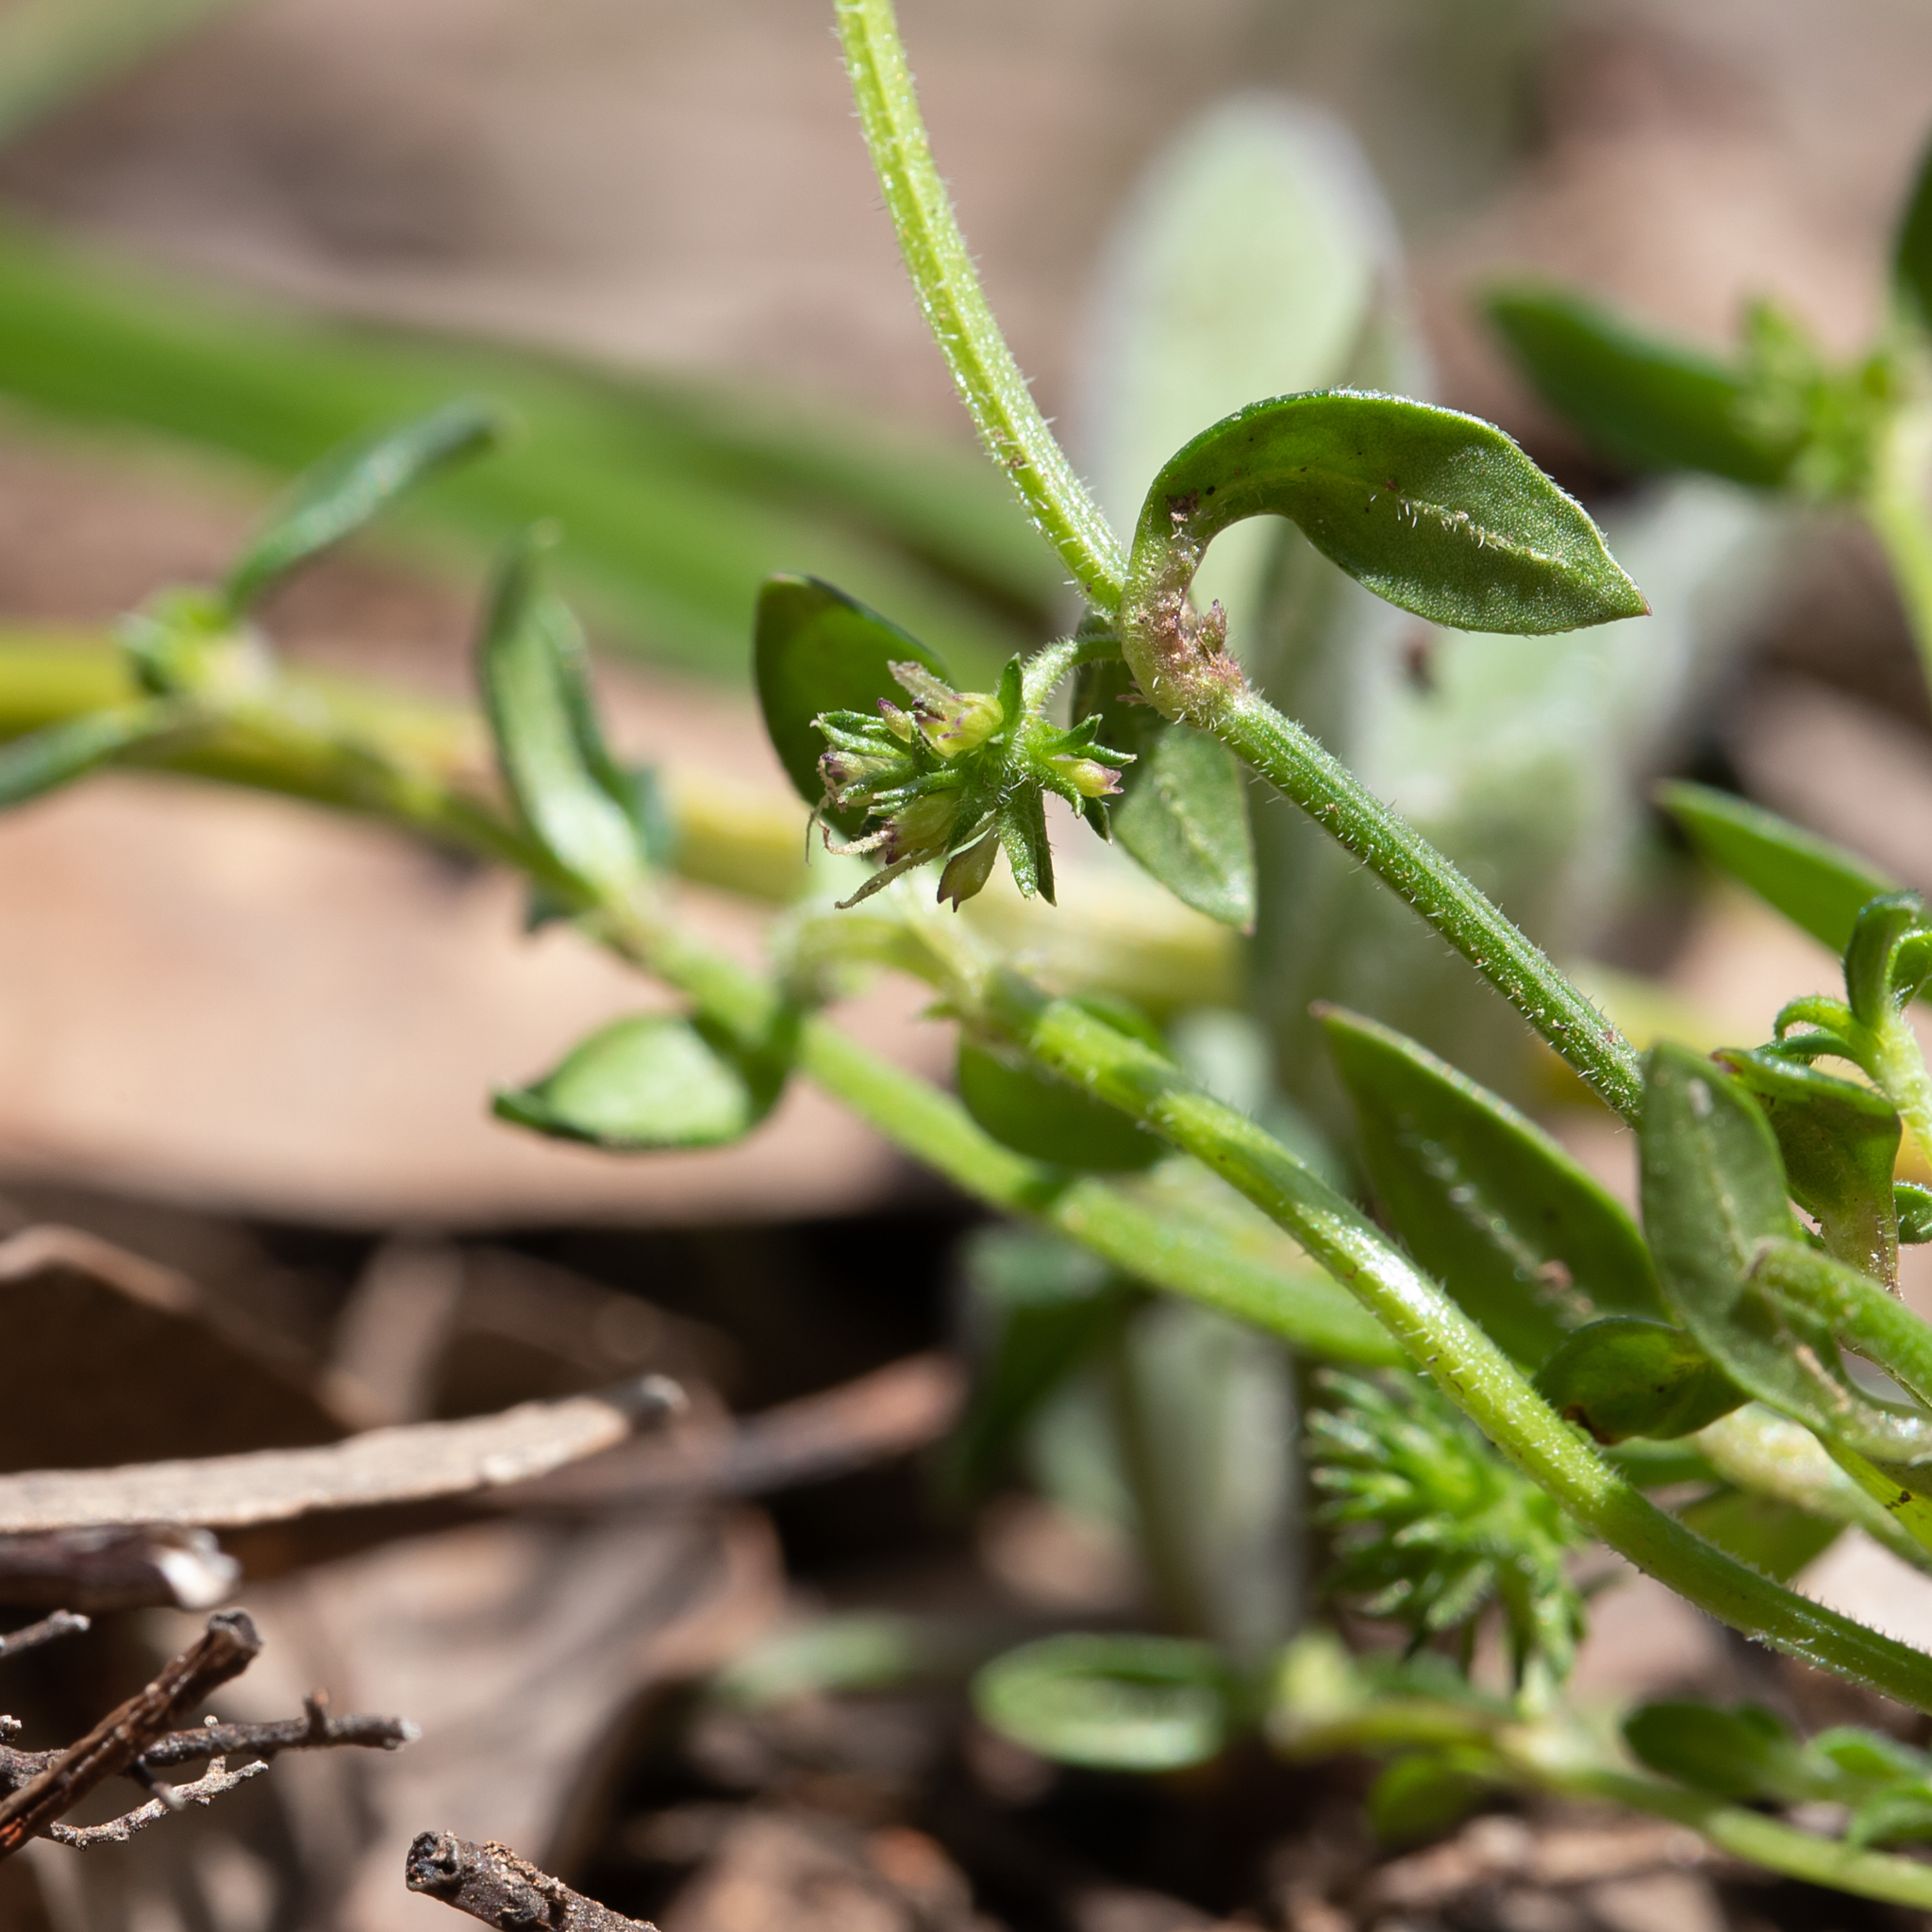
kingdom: Plantae
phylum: Tracheophyta
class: Magnoliopsida
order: Gentianales
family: Rubiaceae
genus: Opercularia
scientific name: Opercularia varia
